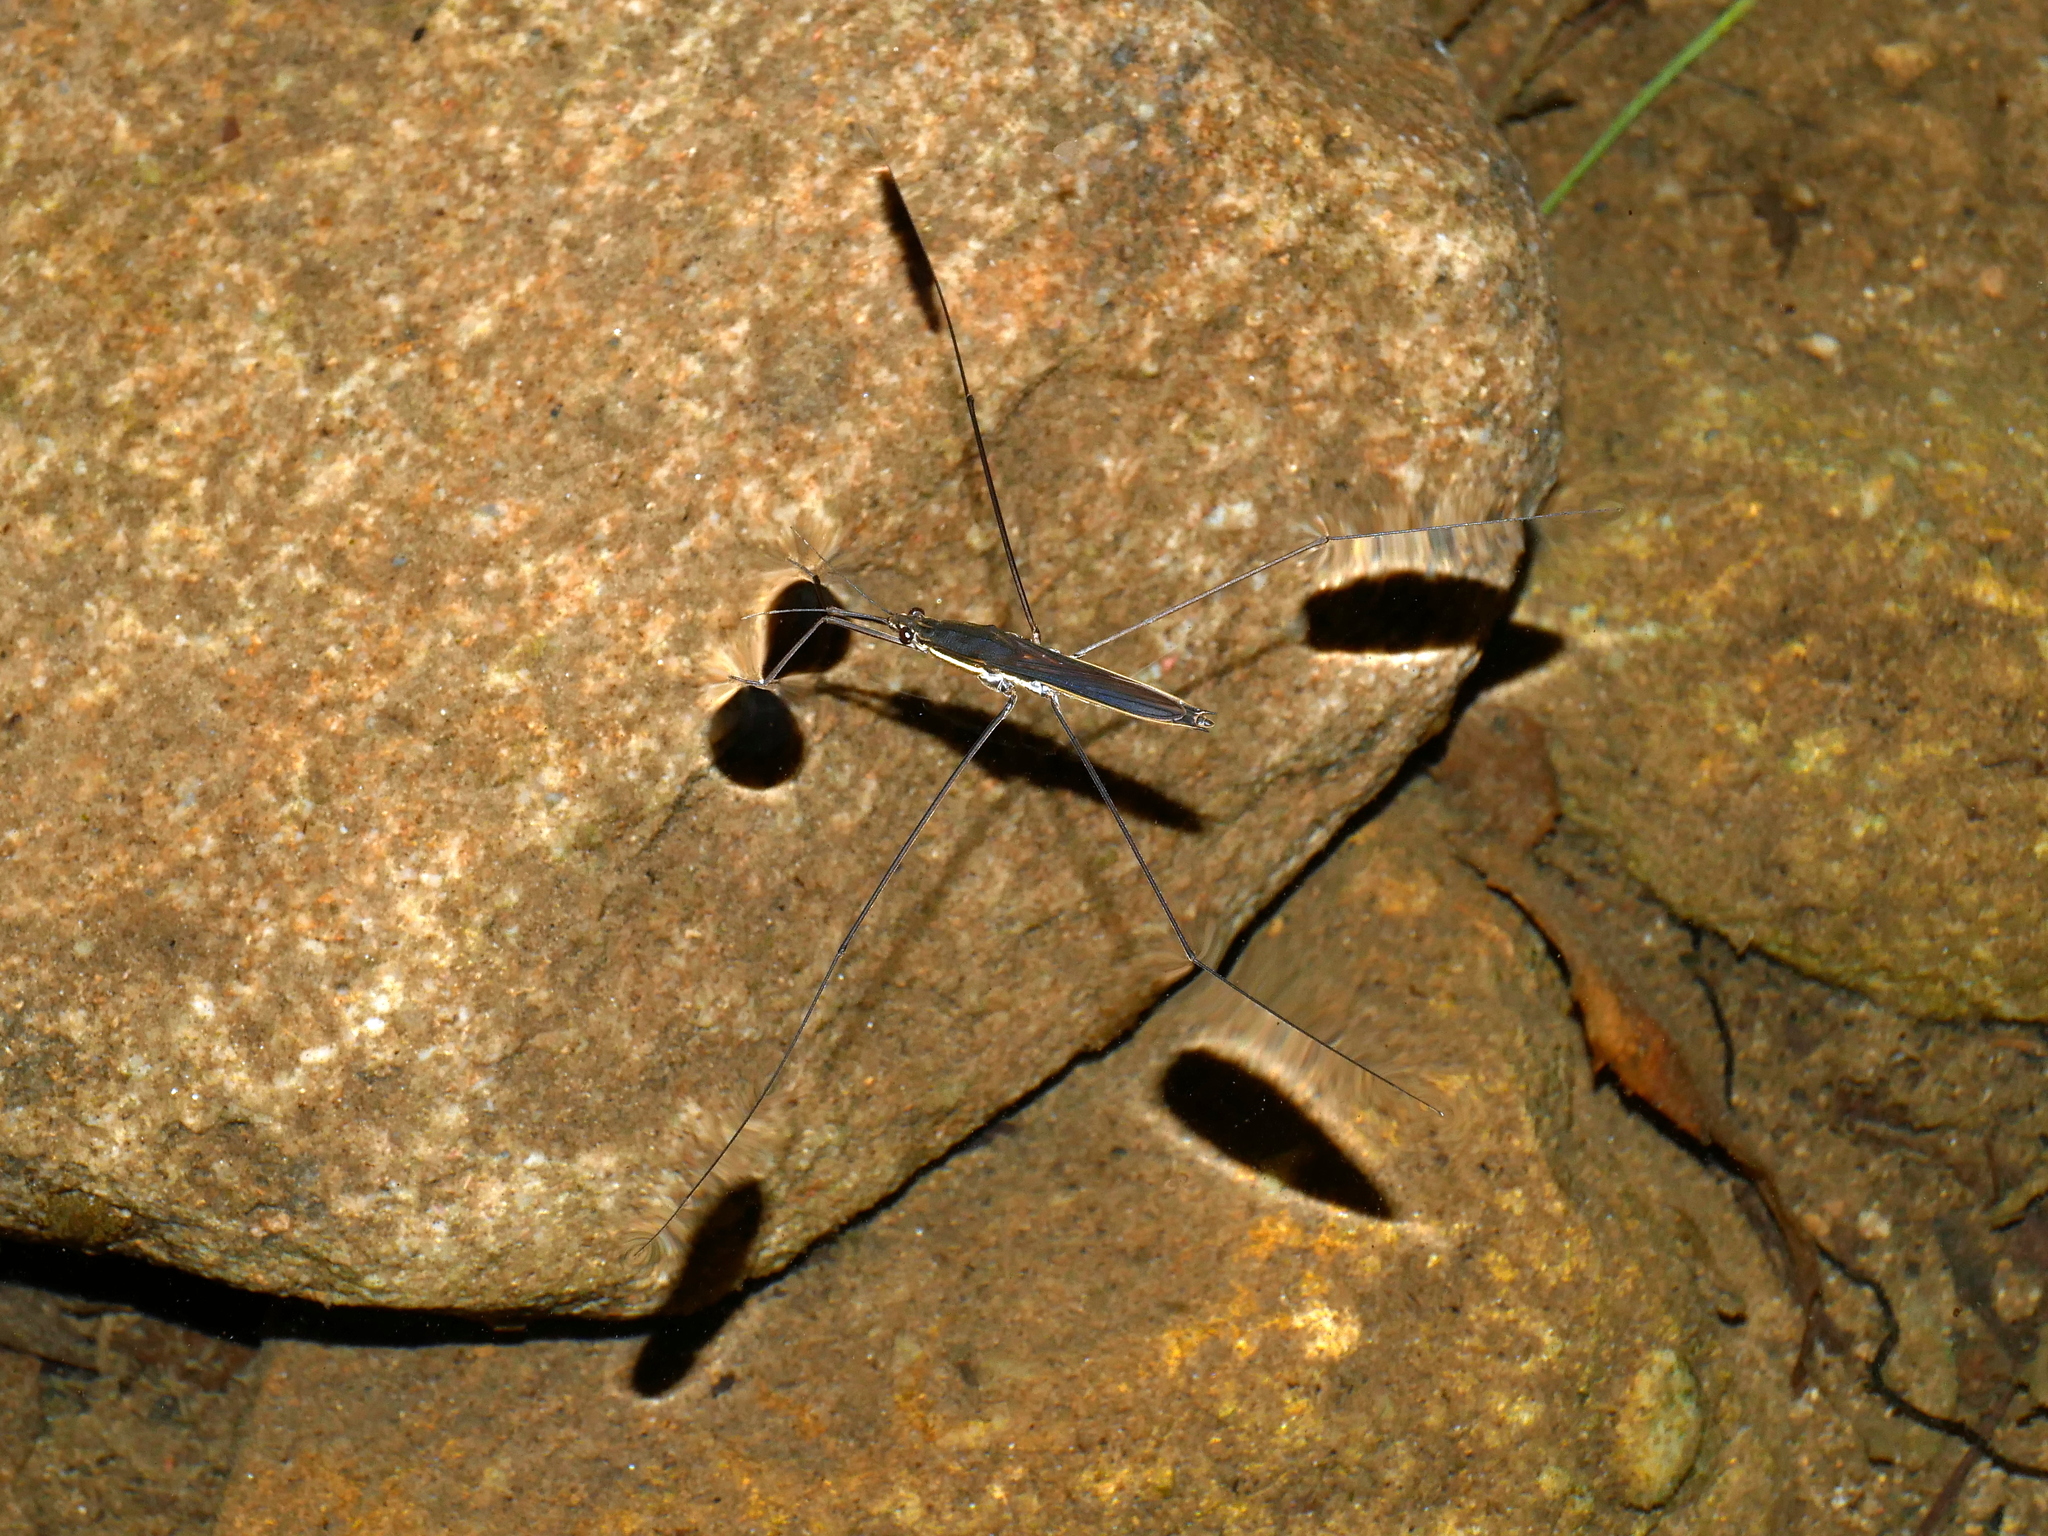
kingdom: Animalia
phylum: Arthropoda
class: Insecta
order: Hemiptera
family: Gerridae
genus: Aquarius
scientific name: Aquarius elongatus
